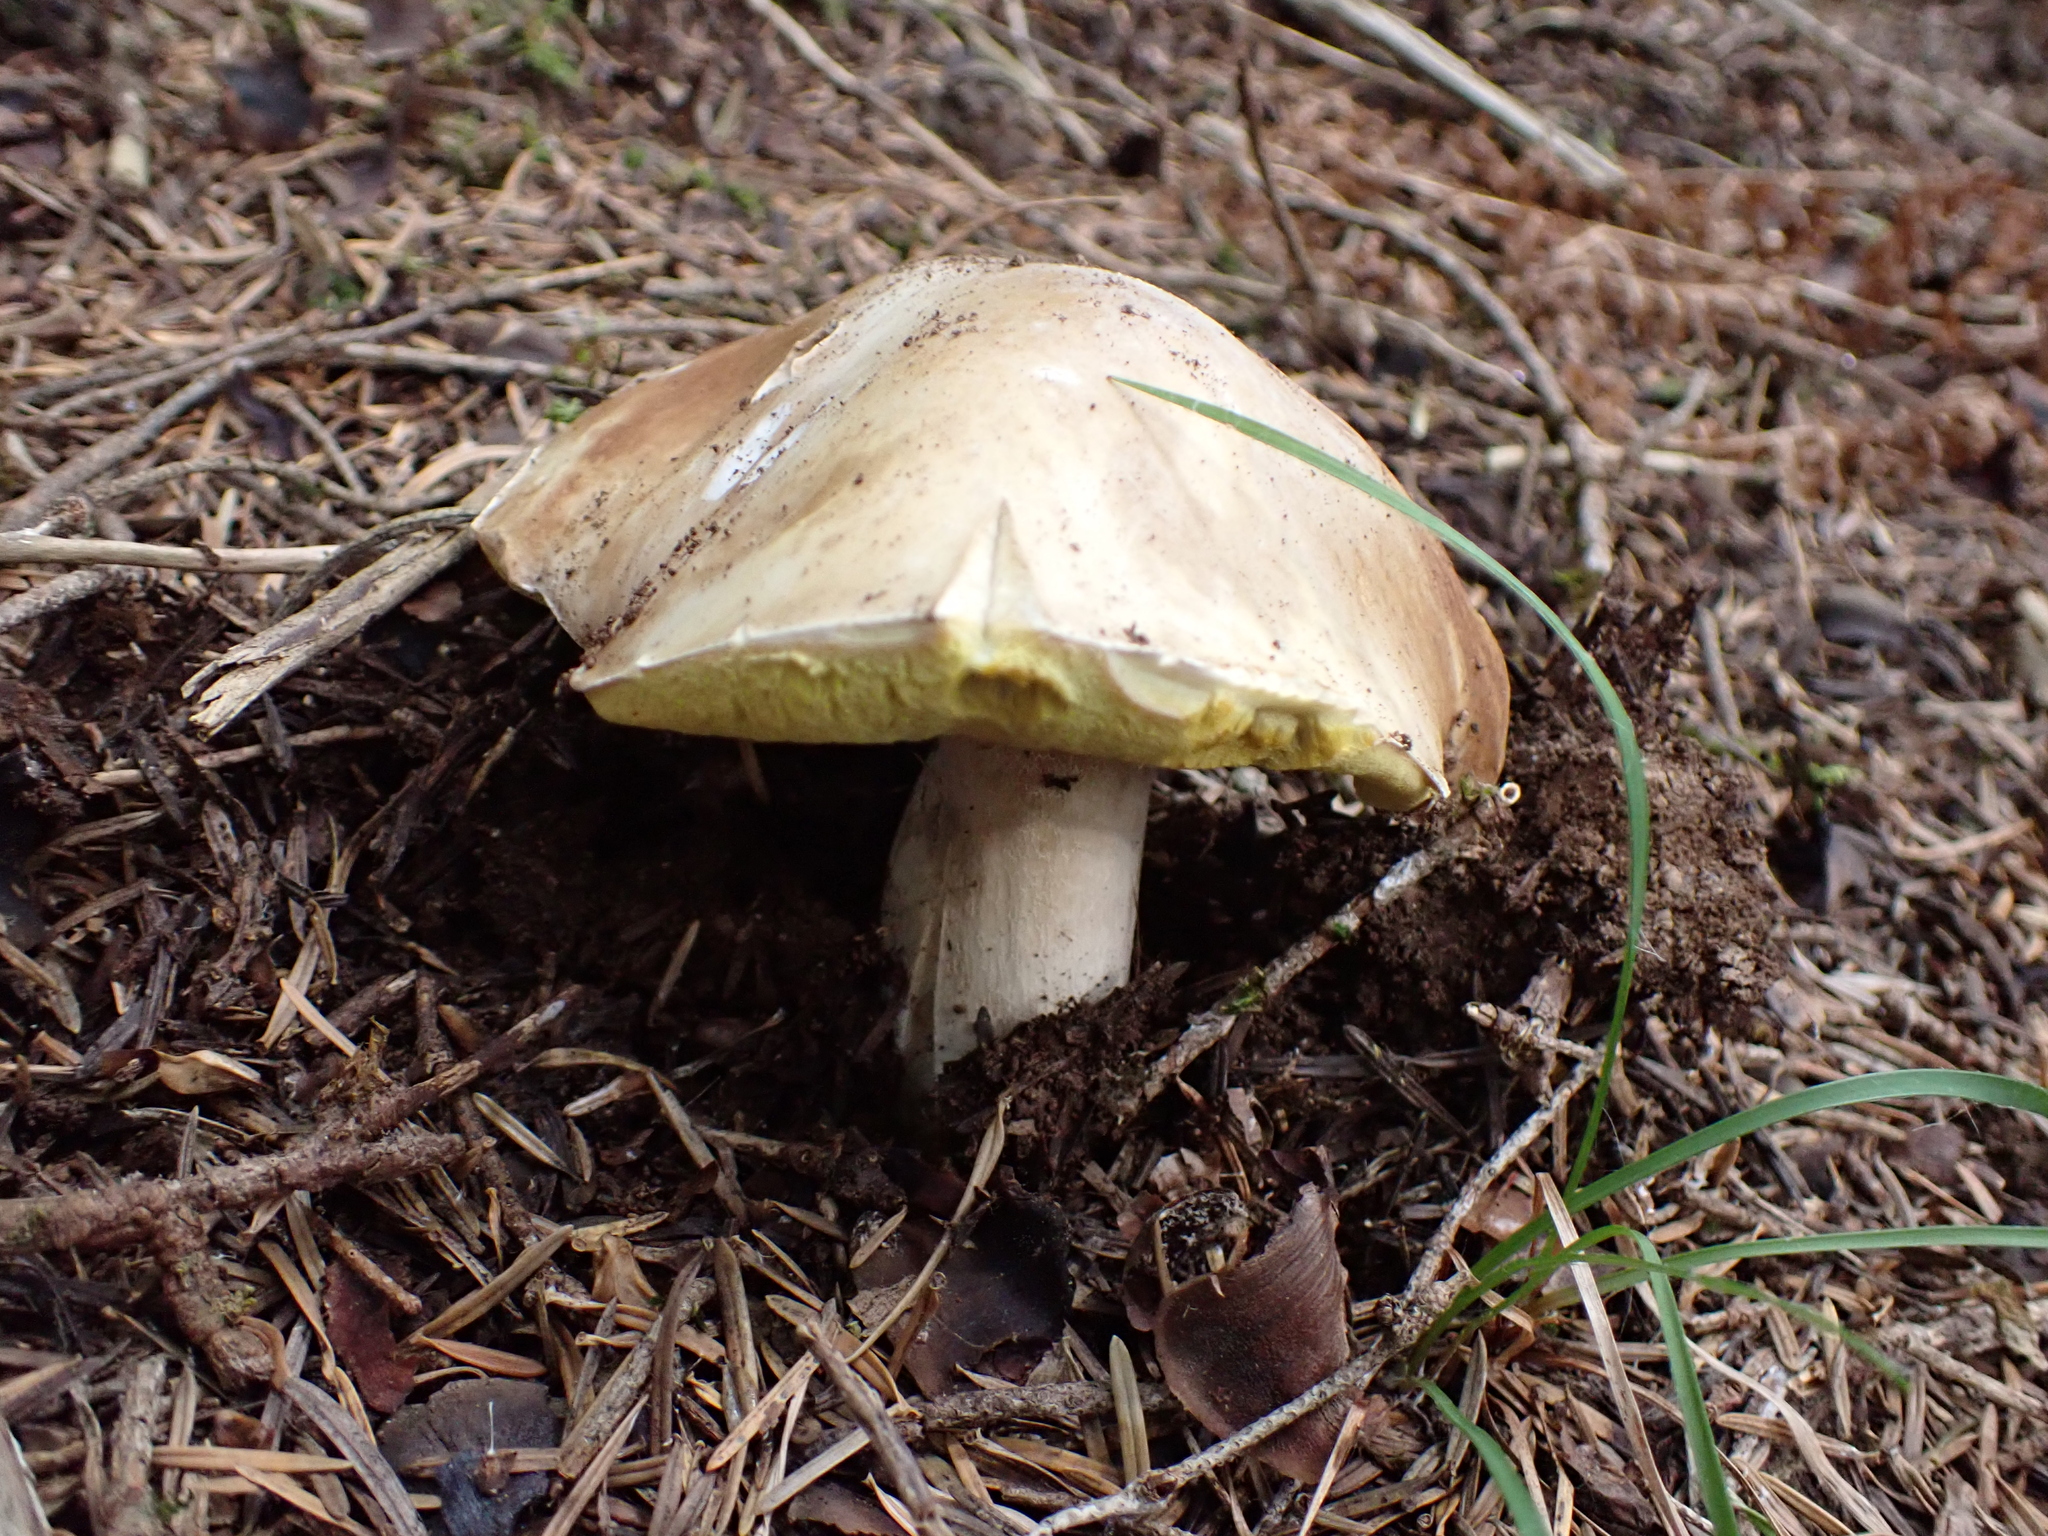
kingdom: Fungi
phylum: Basidiomycota
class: Agaricomycetes
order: Boletales
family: Boletaceae
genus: Boletus
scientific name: Boletus edulis
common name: Cep
